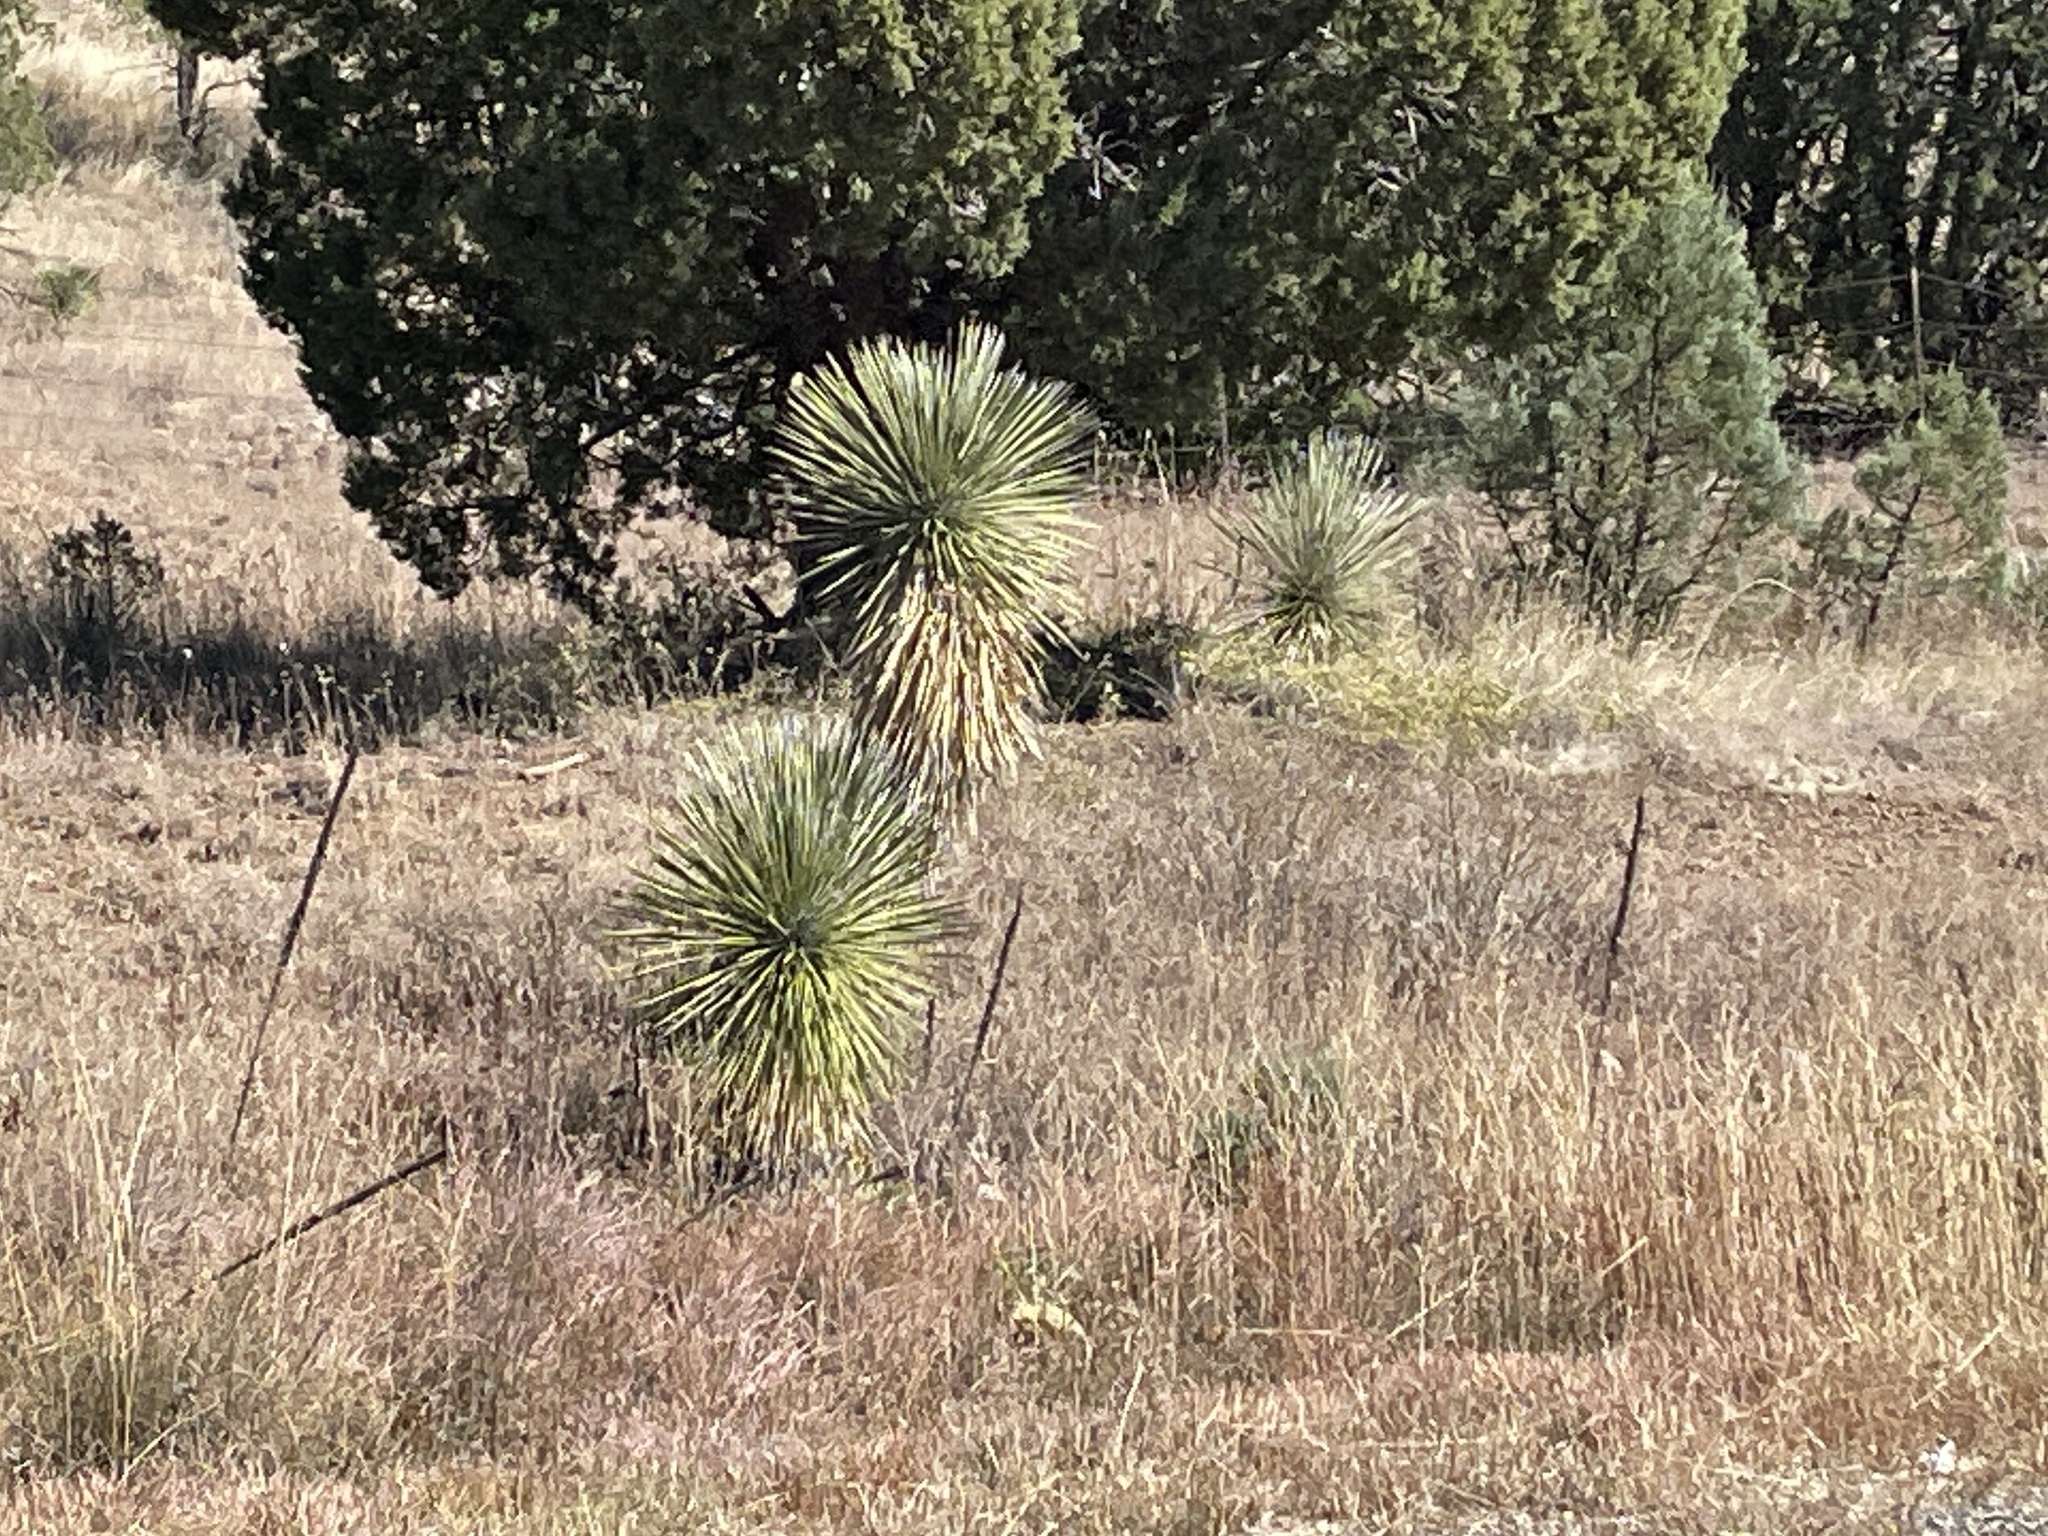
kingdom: Plantae
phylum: Tracheophyta
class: Liliopsida
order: Asparagales
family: Asparagaceae
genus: Yucca
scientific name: Yucca elata
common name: Palmella
